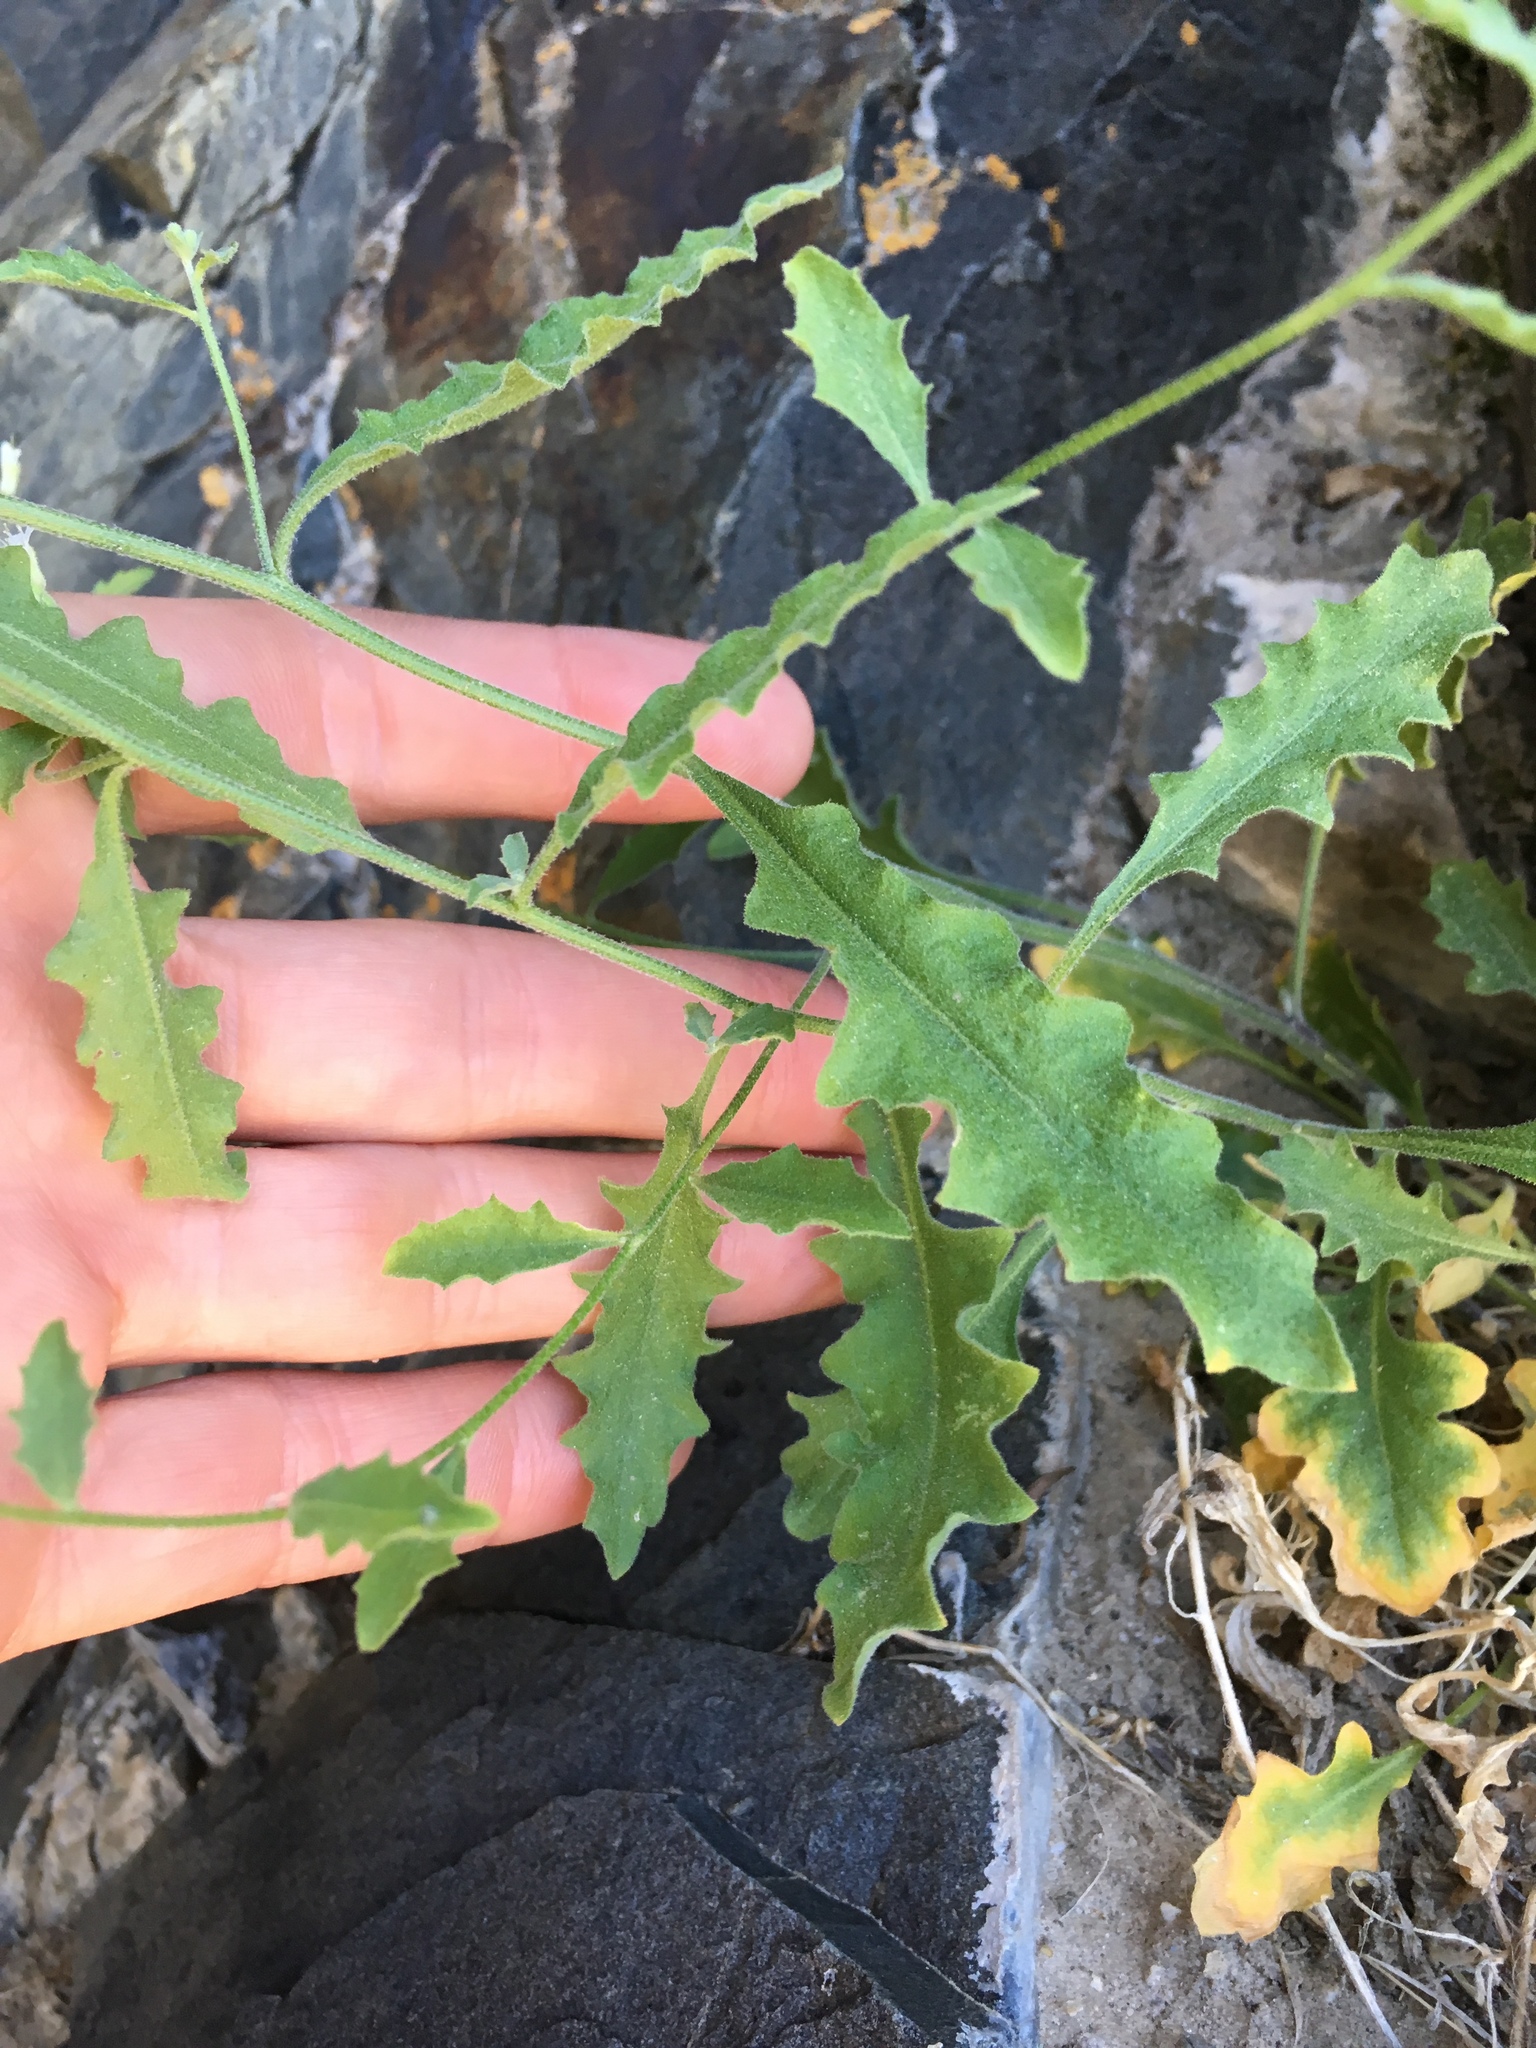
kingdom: Plantae
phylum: Tracheophyta
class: Magnoliopsida
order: Brassicales
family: Brassicaceae
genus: Halimolobos
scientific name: Halimolobos jaegeri
